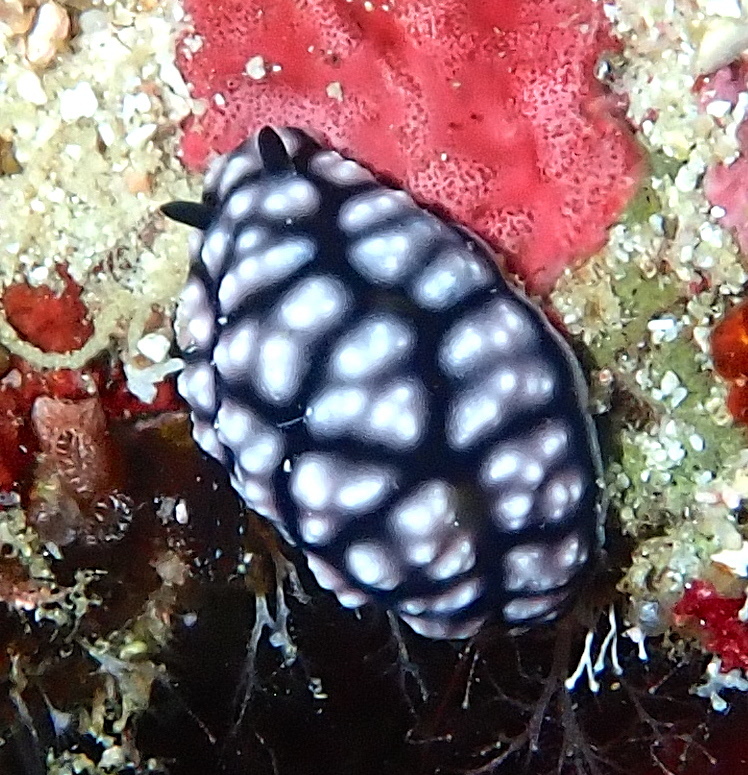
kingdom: Animalia
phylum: Mollusca
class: Gastropoda
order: Nudibranchia
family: Phyllidiidae
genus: Phyllidiella
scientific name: Phyllidiella pustulosa
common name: Pustular phyllidia
